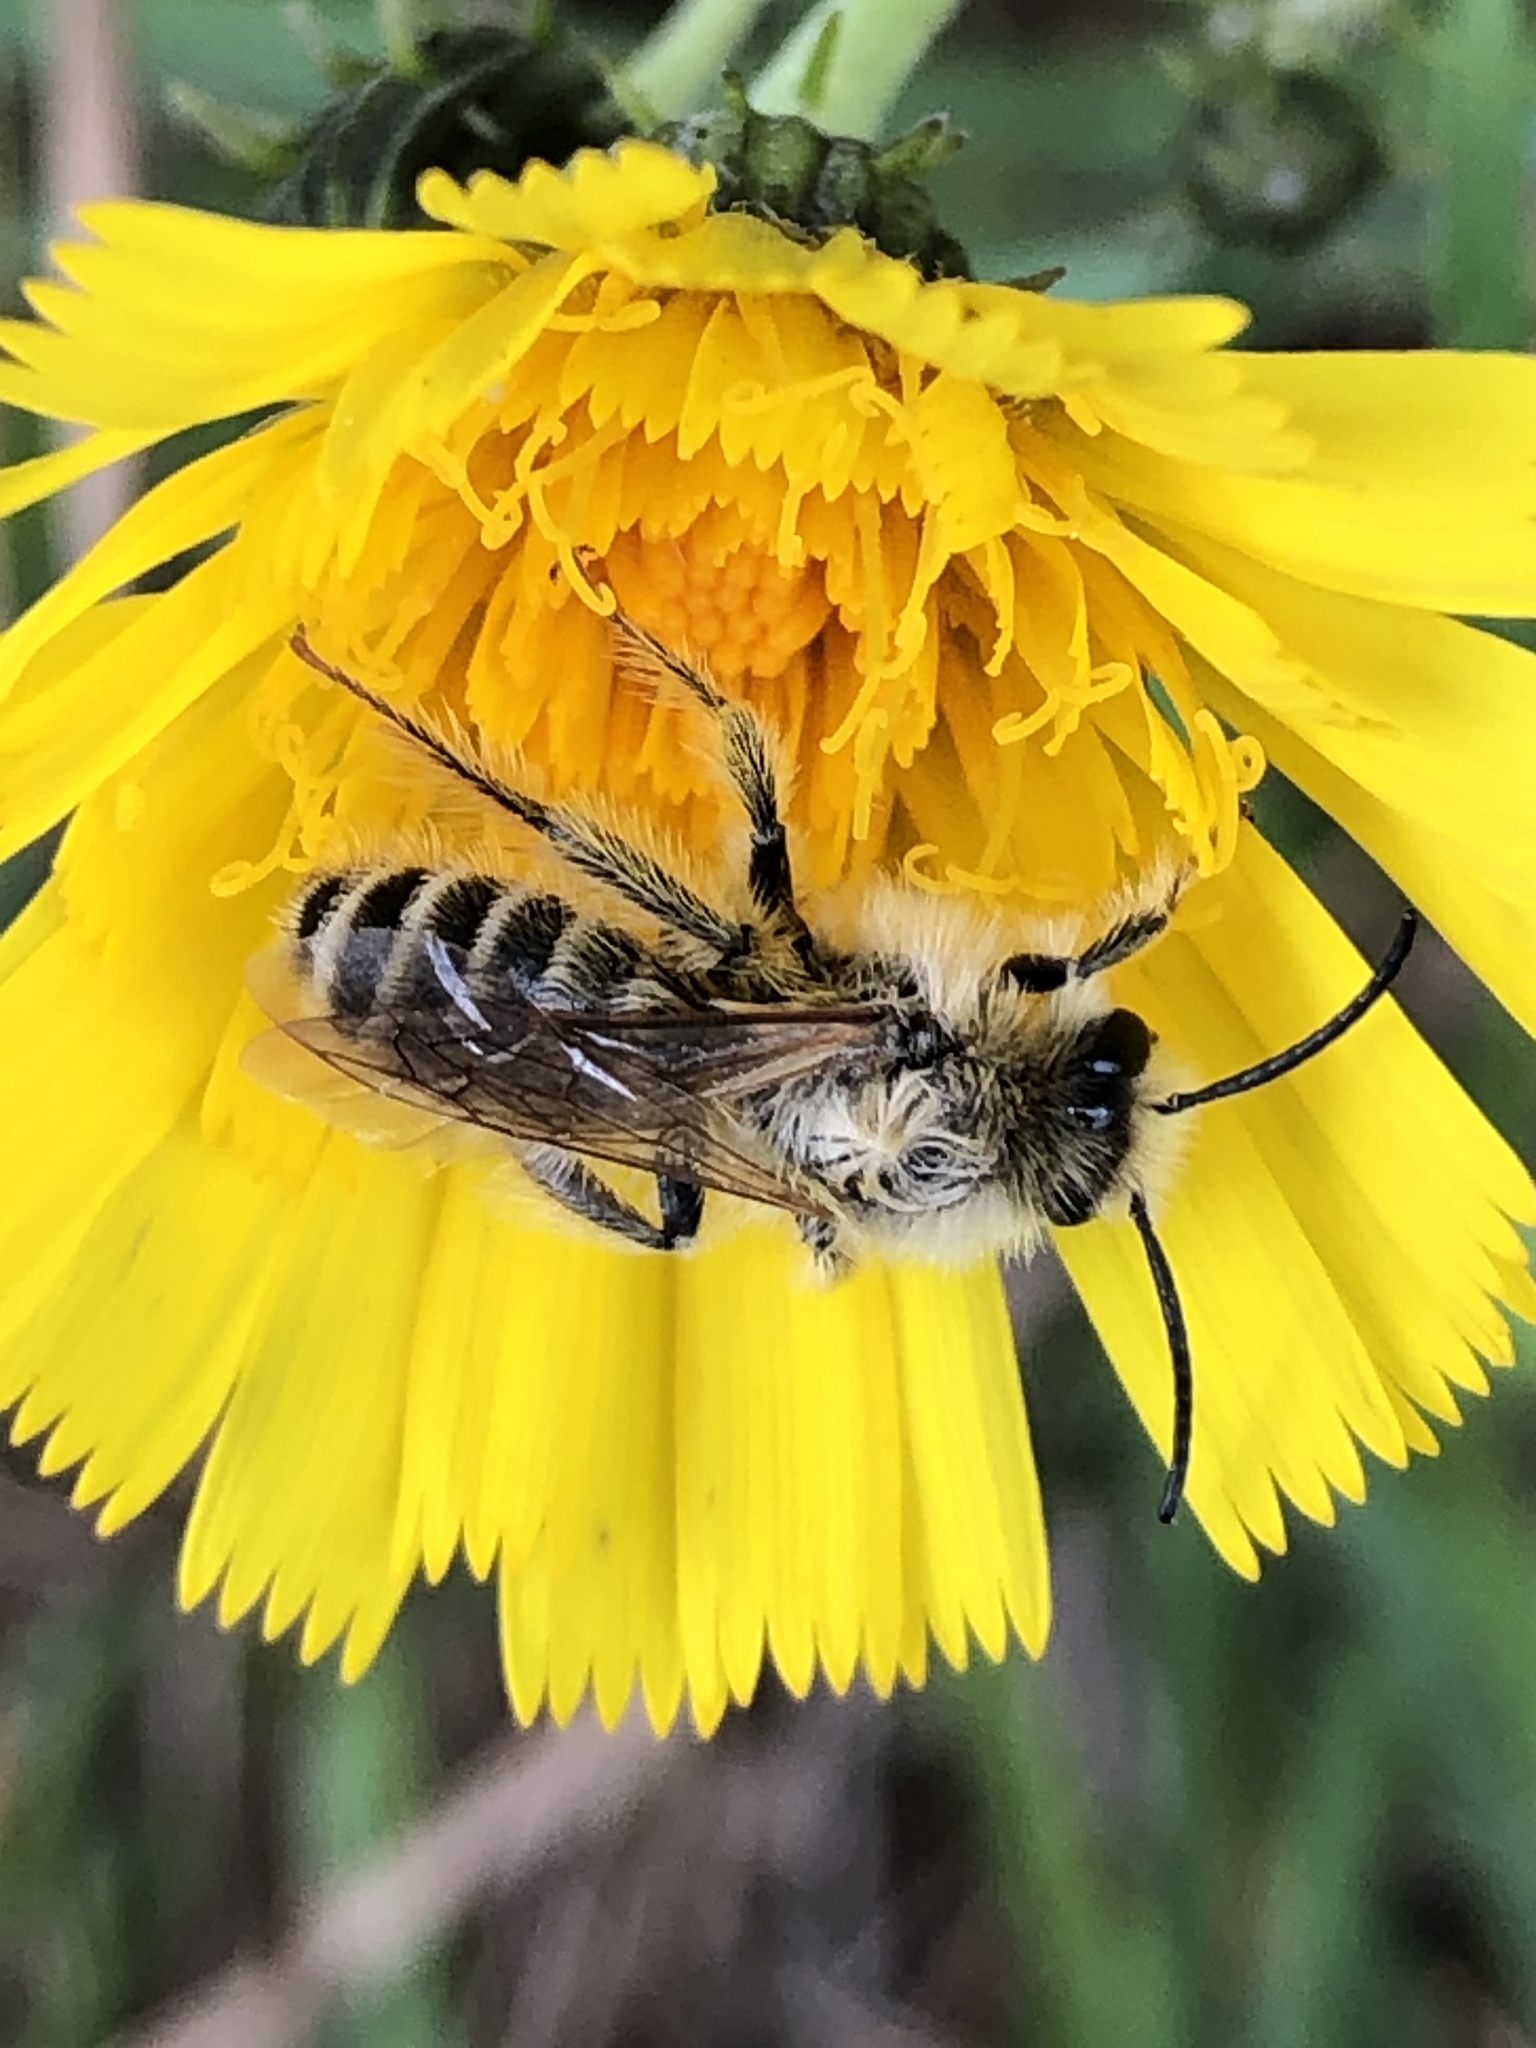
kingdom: Animalia
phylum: Arthropoda
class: Insecta
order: Hymenoptera
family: Melittidae
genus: Dasypoda
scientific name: Dasypoda hirtipes
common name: Pantaloon bee
